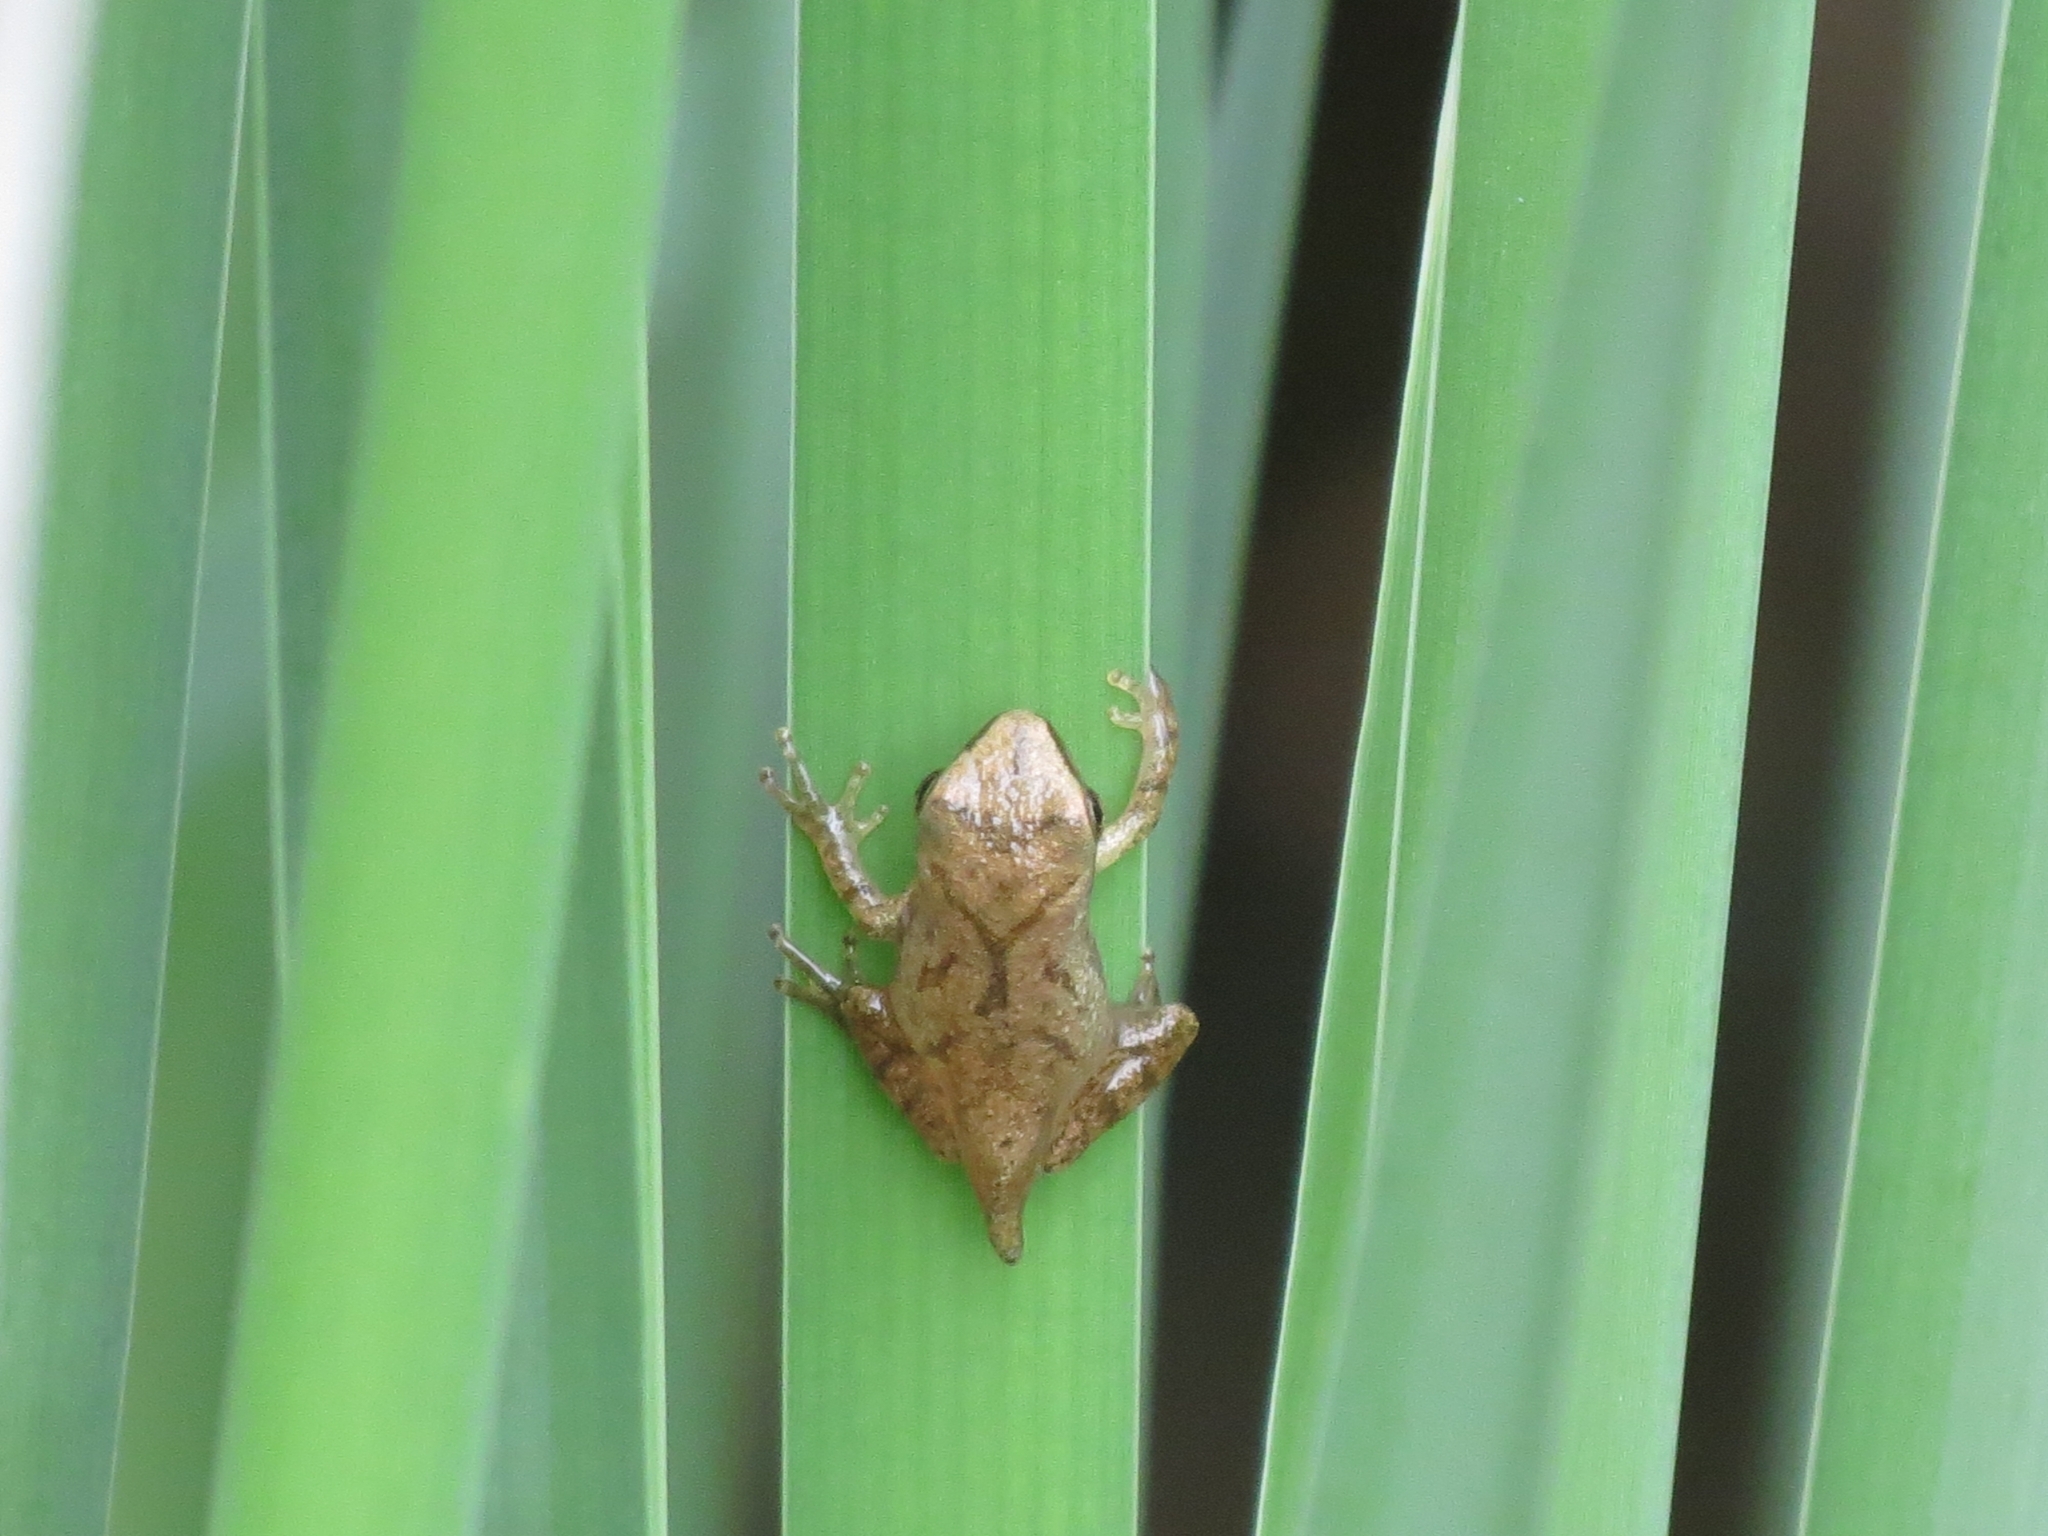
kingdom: Animalia
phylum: Chordata
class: Amphibia
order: Anura
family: Hylidae
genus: Pseudacris
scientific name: Pseudacris crucifer
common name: Spring peeper
